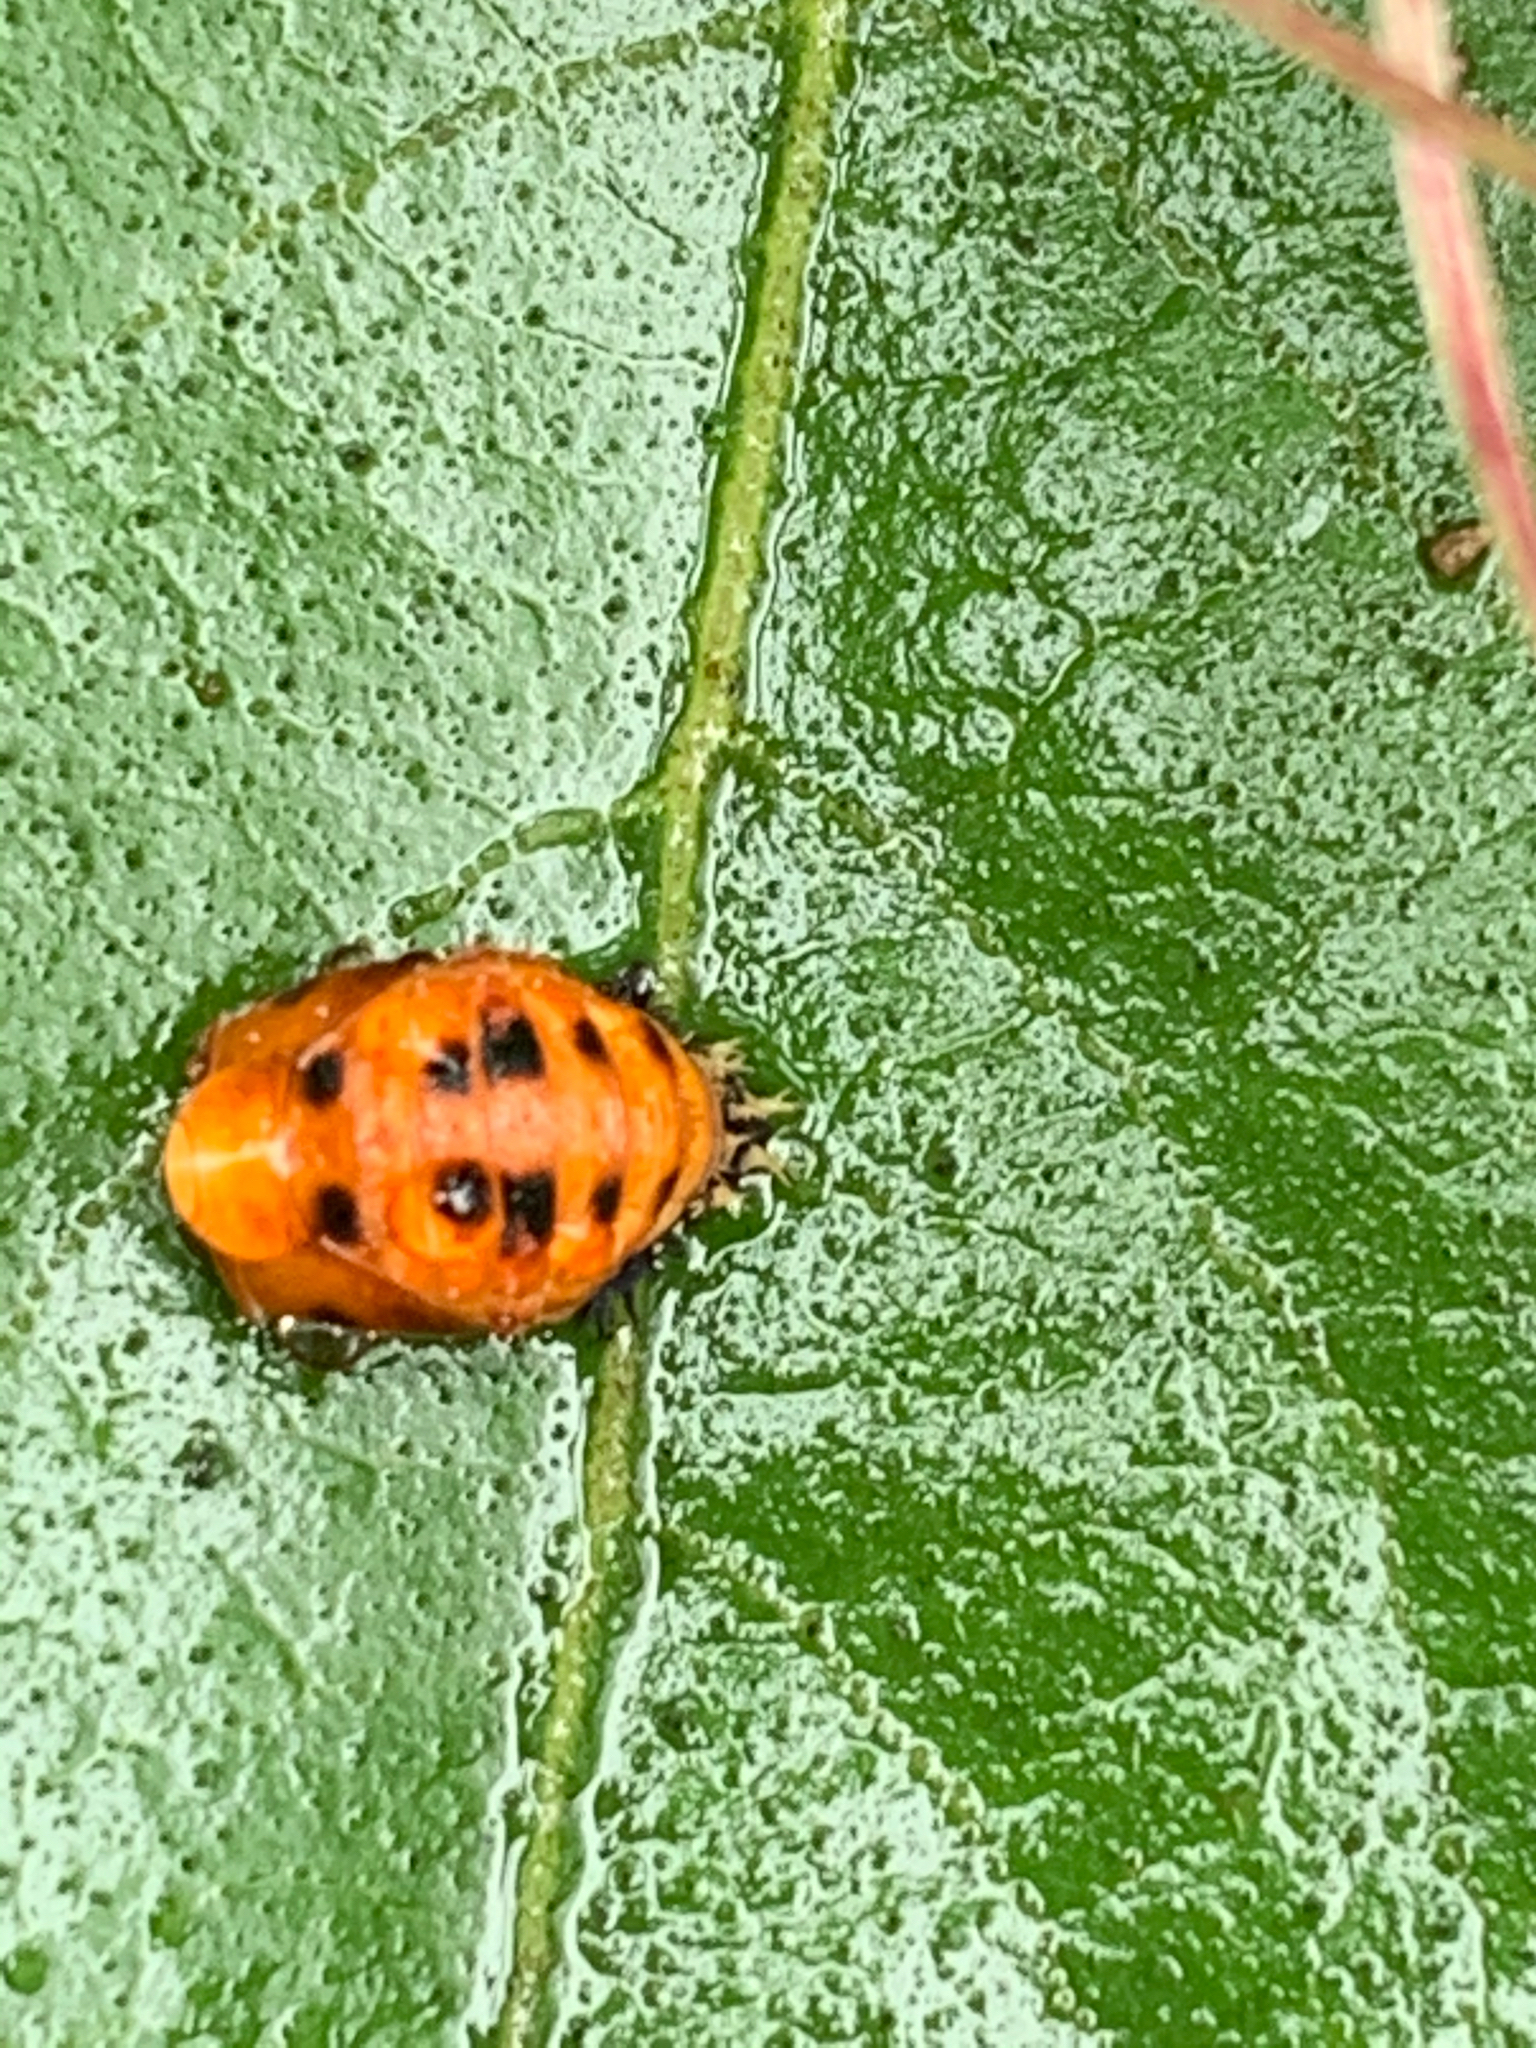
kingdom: Animalia
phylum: Arthropoda
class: Insecta
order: Coleoptera
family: Coccinellidae
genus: Harmonia
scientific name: Harmonia axyridis
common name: Harlequin ladybird
